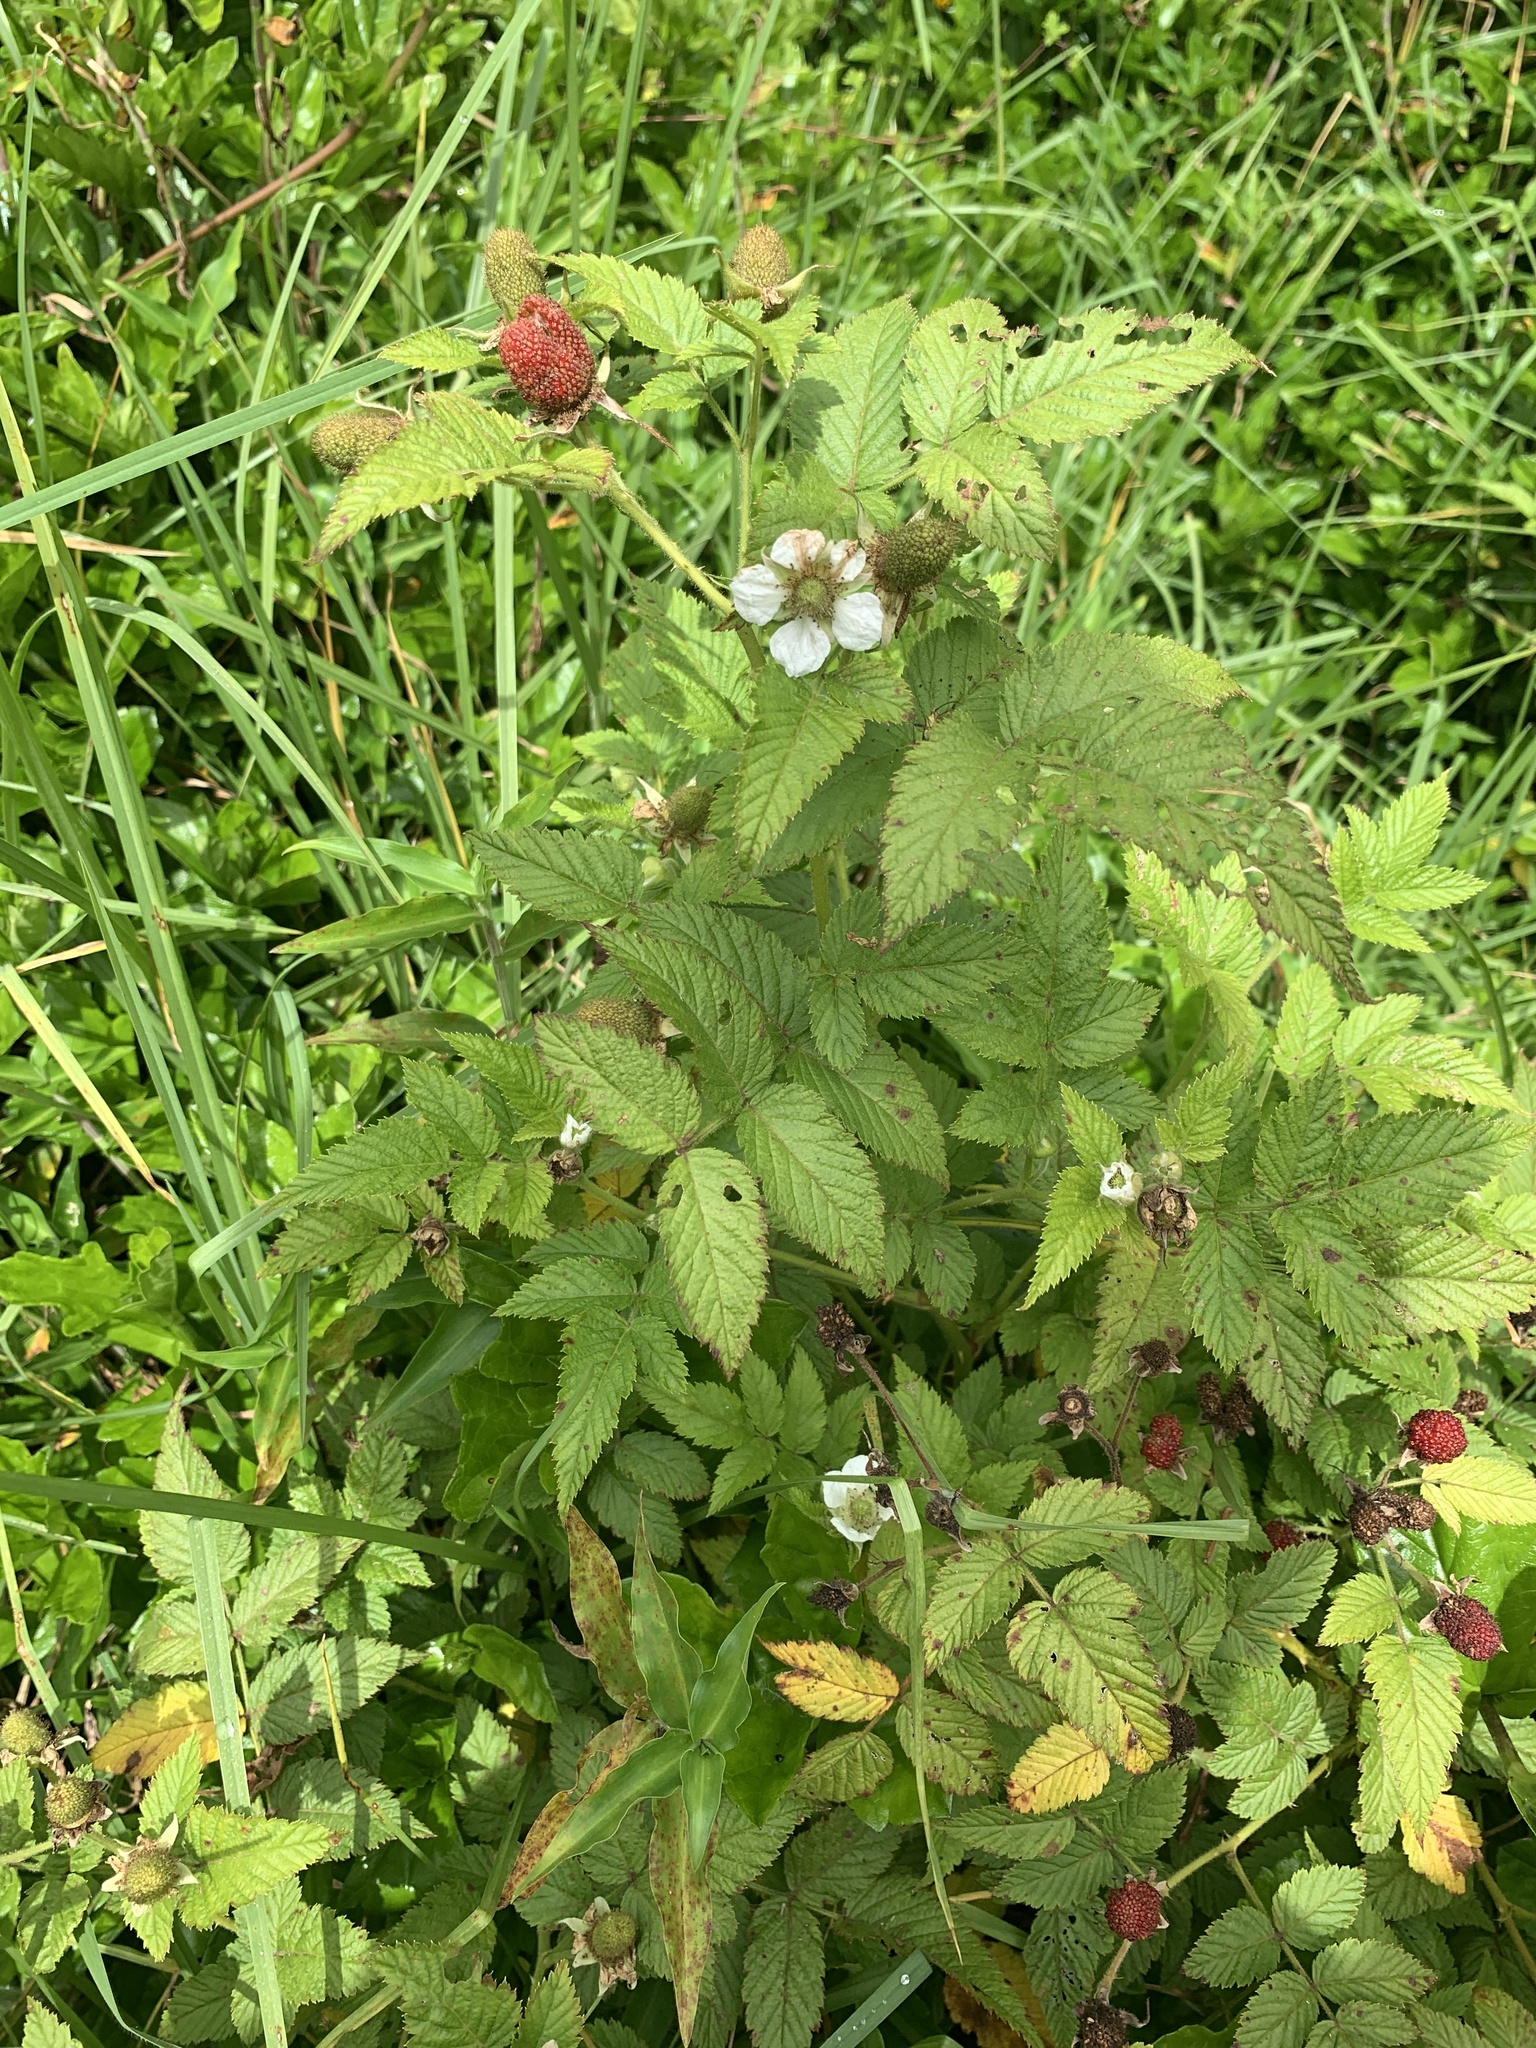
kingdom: Plantae
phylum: Tracheophyta
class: Magnoliopsida
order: Rosales
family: Rosaceae
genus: Rubus
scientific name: Rubus rosifolius
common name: Roseleaf raspberry
